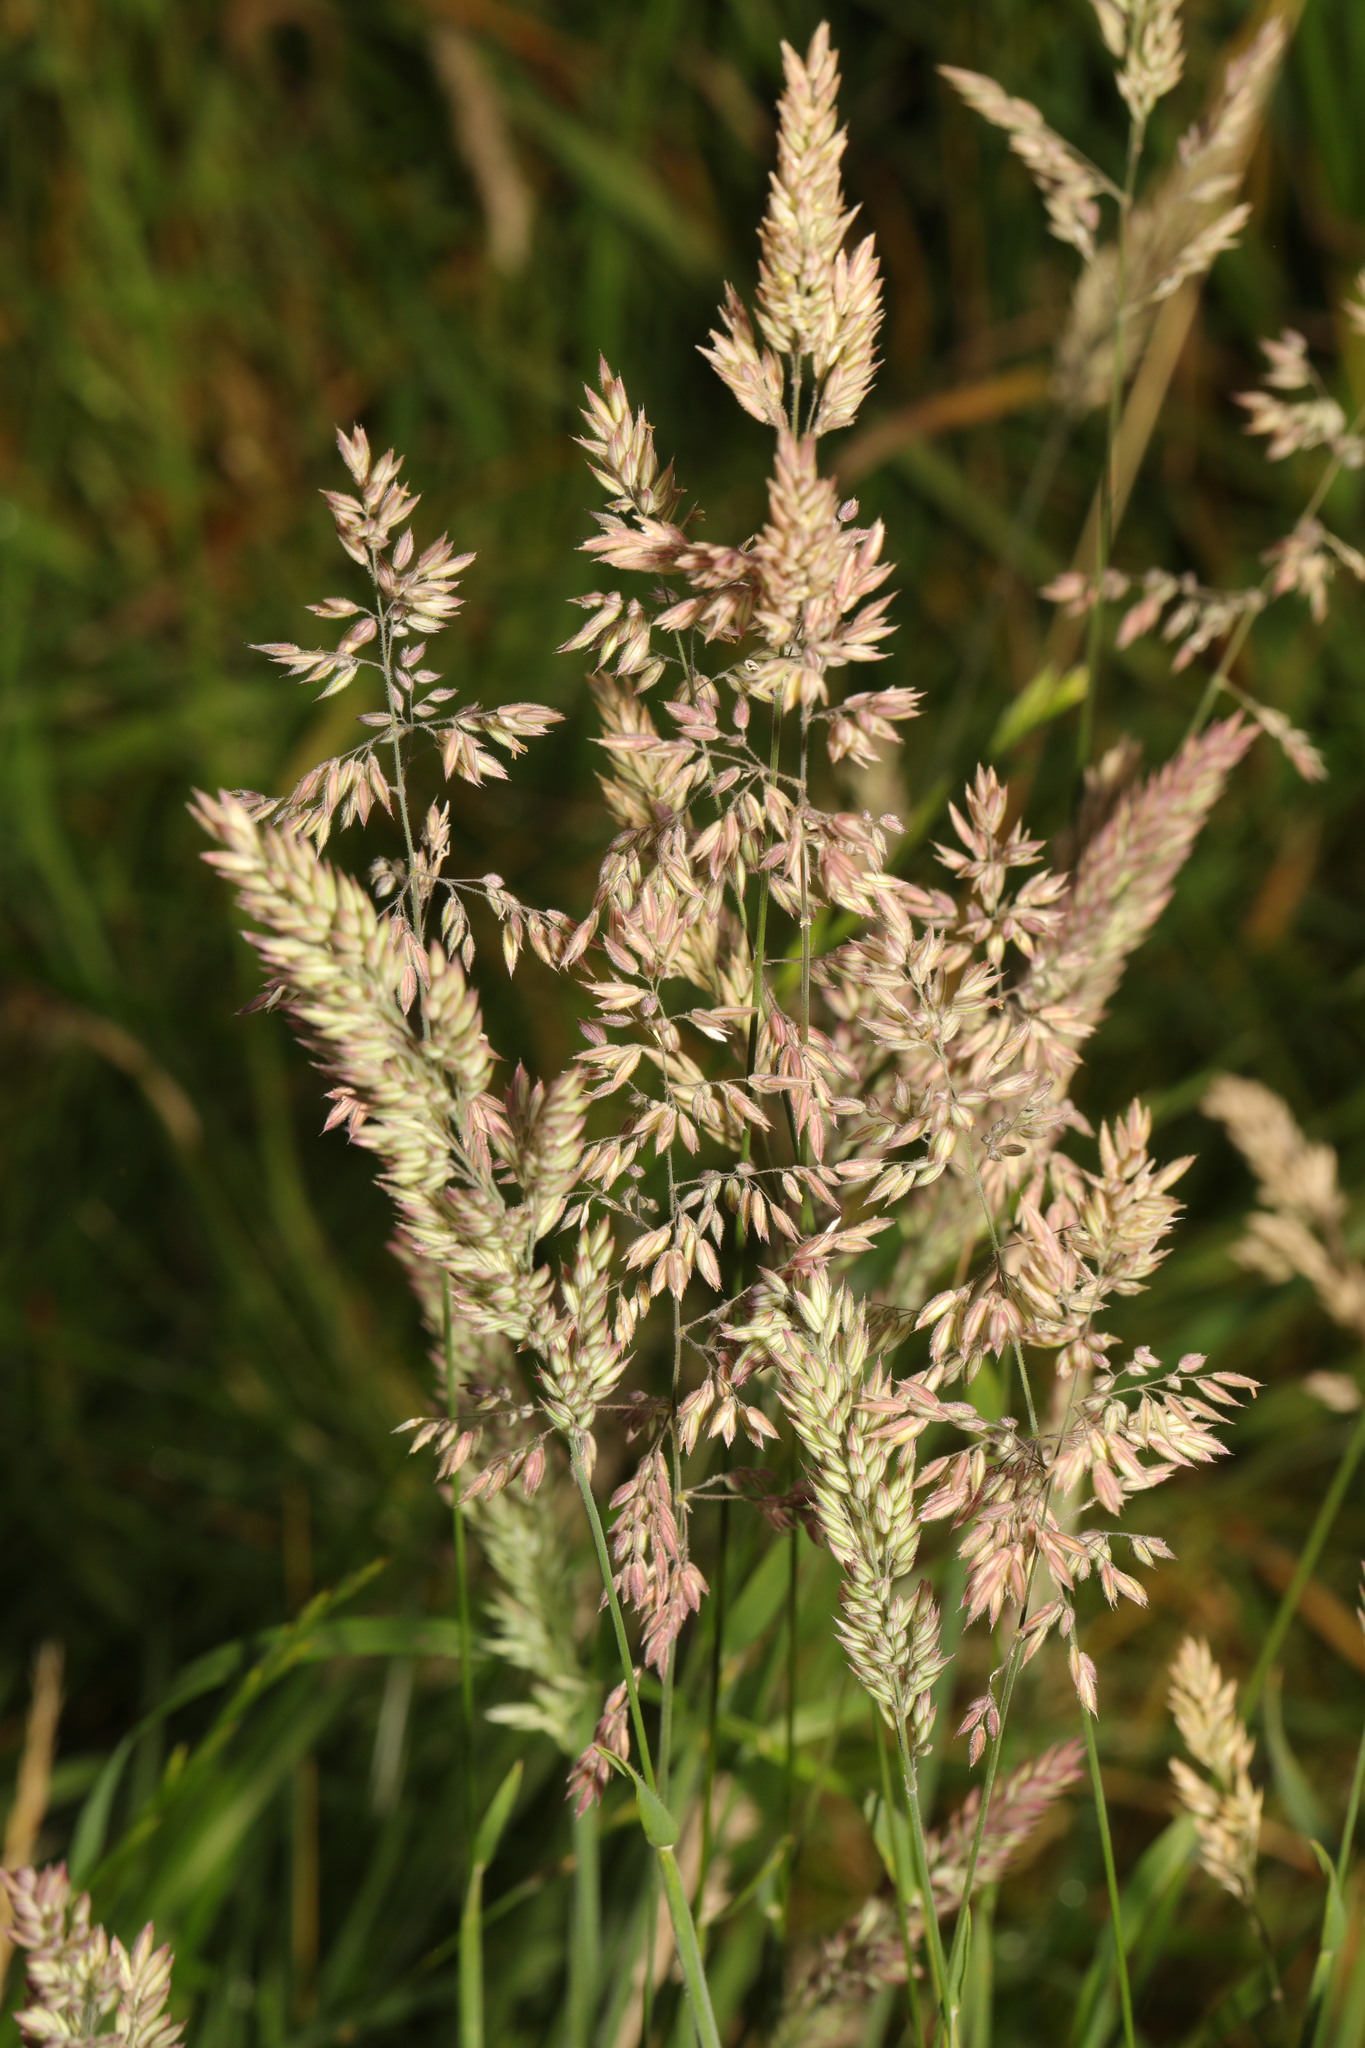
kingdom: Plantae
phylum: Tracheophyta
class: Liliopsida
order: Poales
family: Poaceae
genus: Holcus
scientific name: Holcus lanatus
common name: Yorkshire-fog
